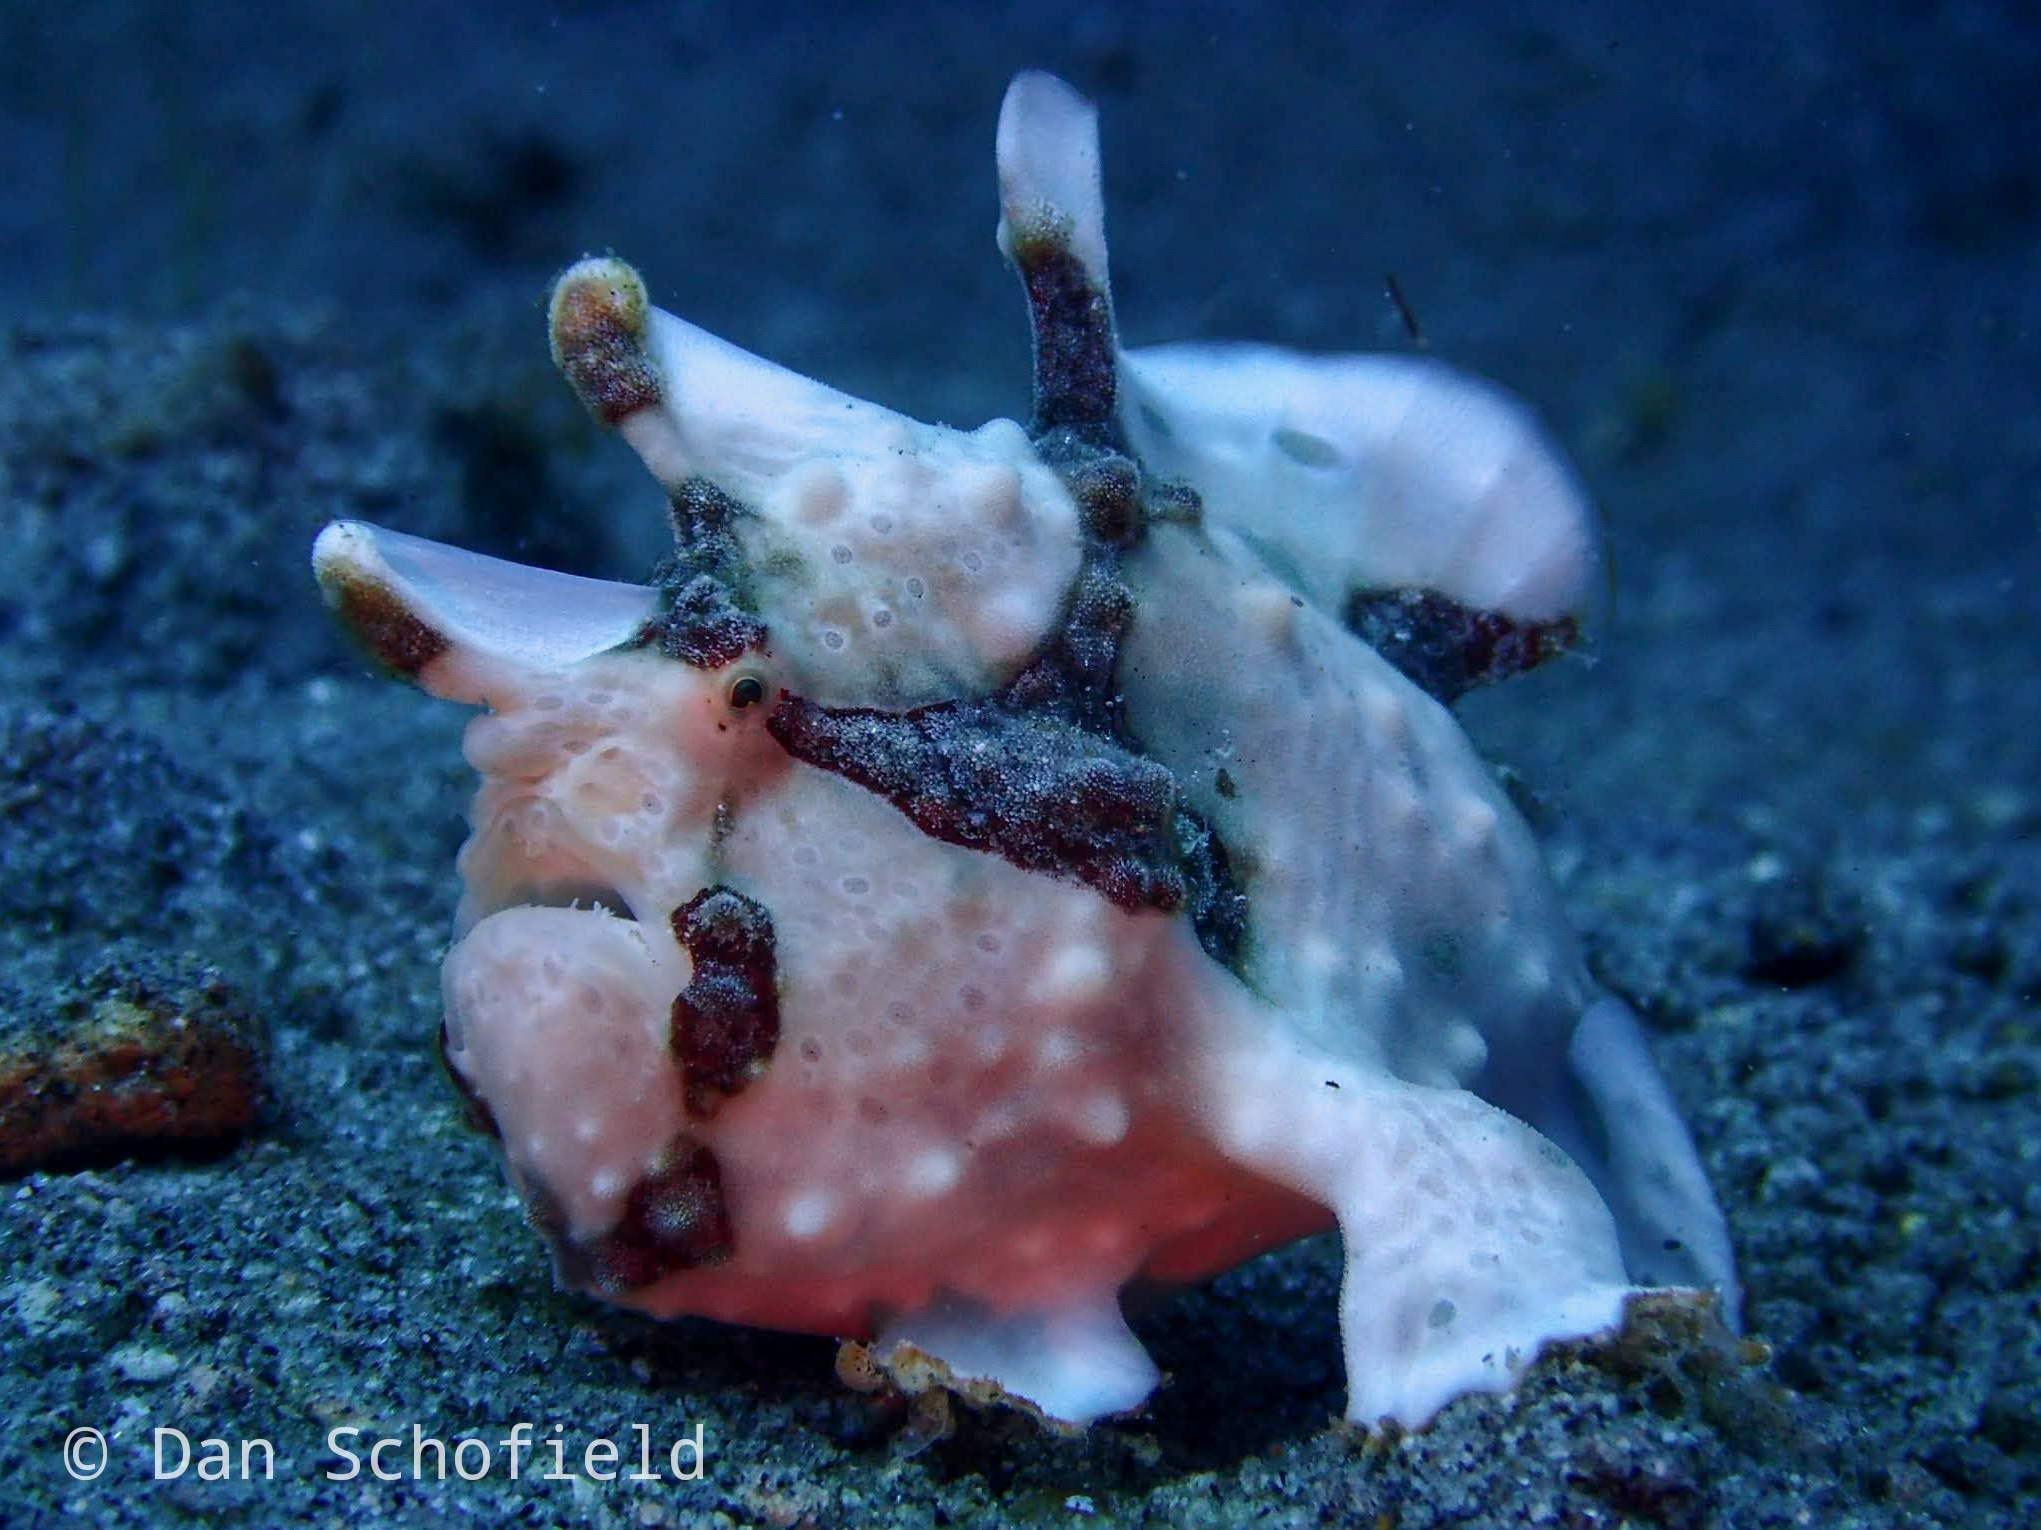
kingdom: Animalia
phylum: Chordata
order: Lophiiformes
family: Antennariidae
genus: Antennarius
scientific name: Antennarius maculatus
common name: Warty frogfish
